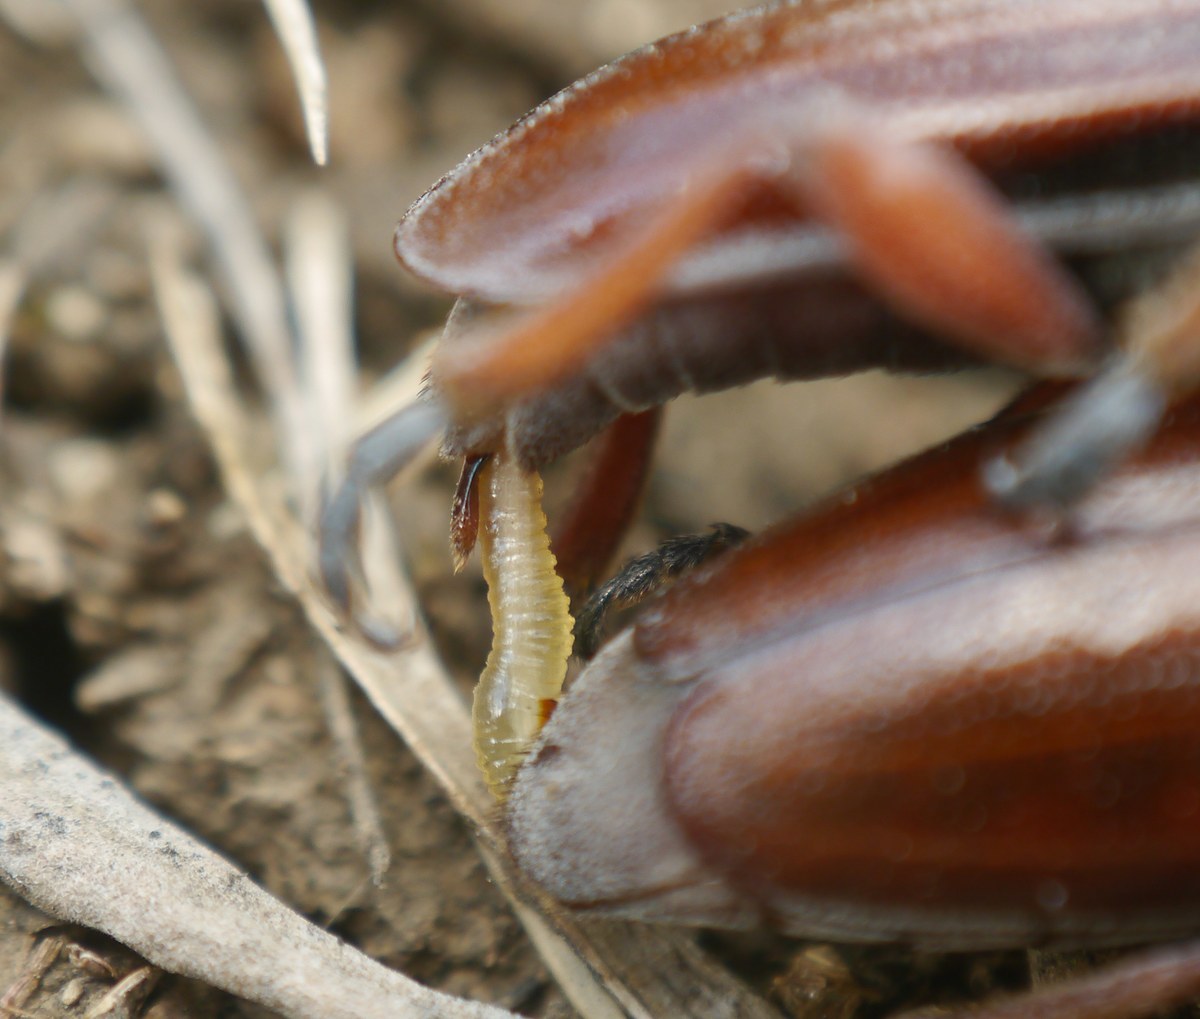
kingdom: Animalia
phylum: Arthropoda
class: Insecta
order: Coleoptera
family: Cerambycidae
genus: Dorcadion
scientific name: Dorcadion fulvum
